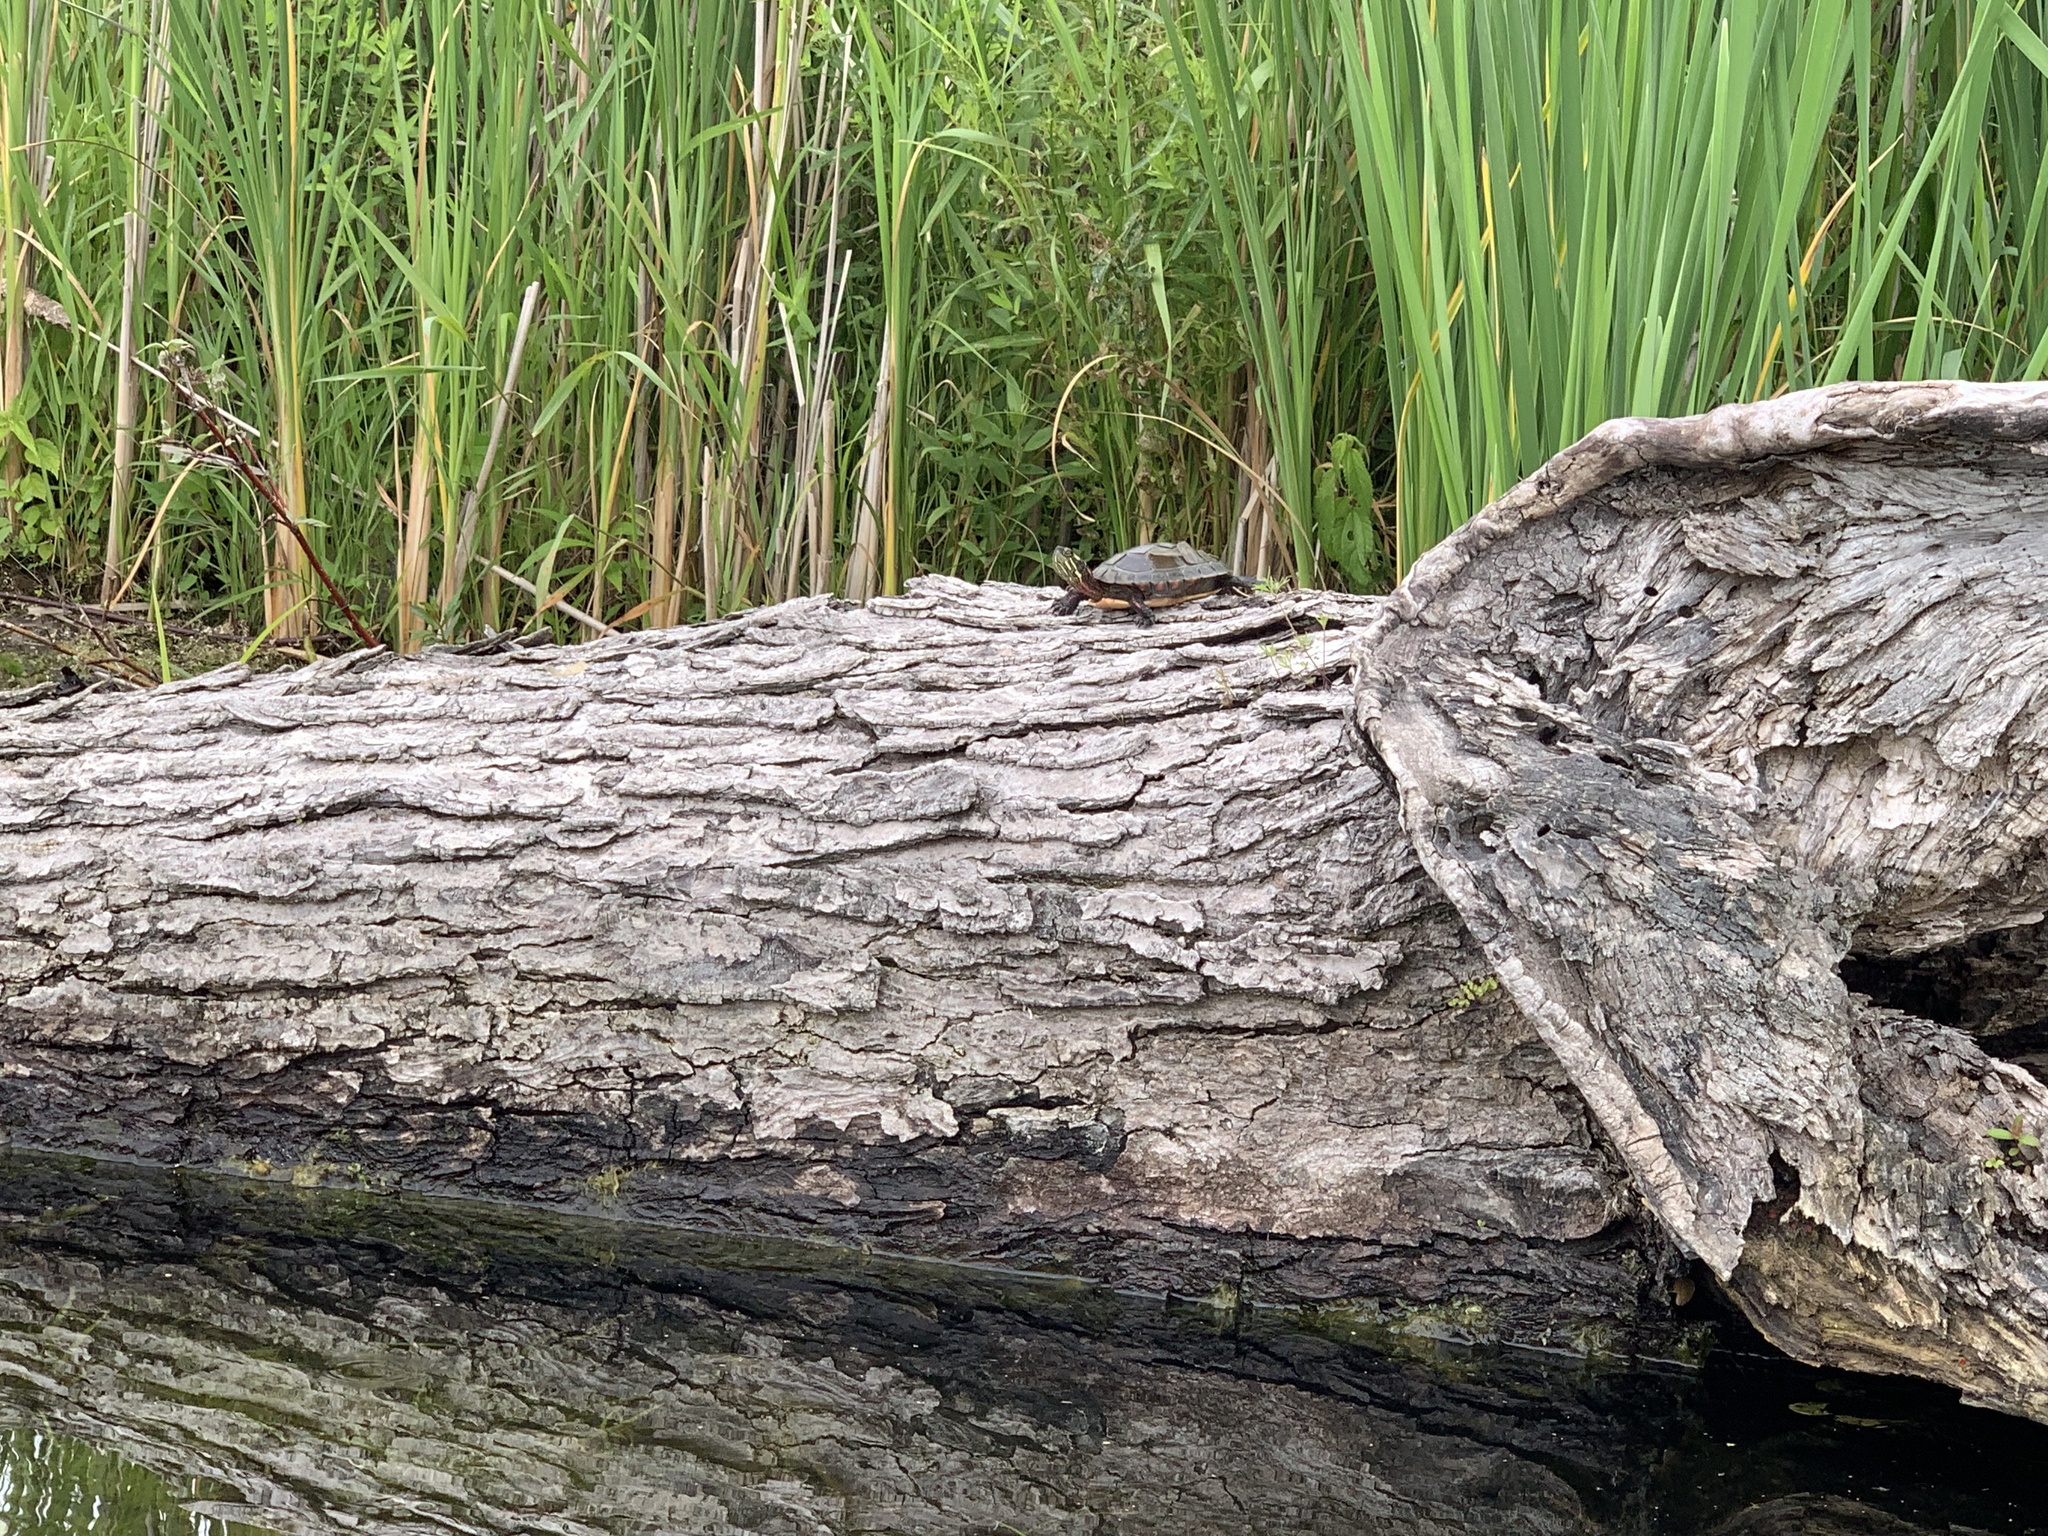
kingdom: Animalia
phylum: Chordata
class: Testudines
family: Emydidae
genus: Chrysemys
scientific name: Chrysemys picta
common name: Painted turtle
